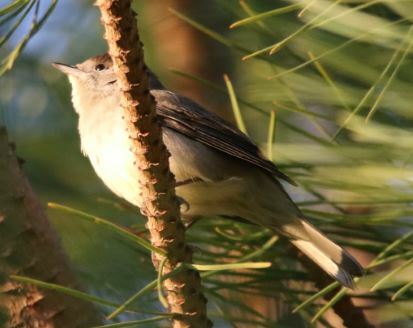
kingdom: Animalia
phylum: Chordata
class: Aves
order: Passeriformes
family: Sylviidae
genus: Sylvia
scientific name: Sylvia atricapilla
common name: Eurasian blackcap
